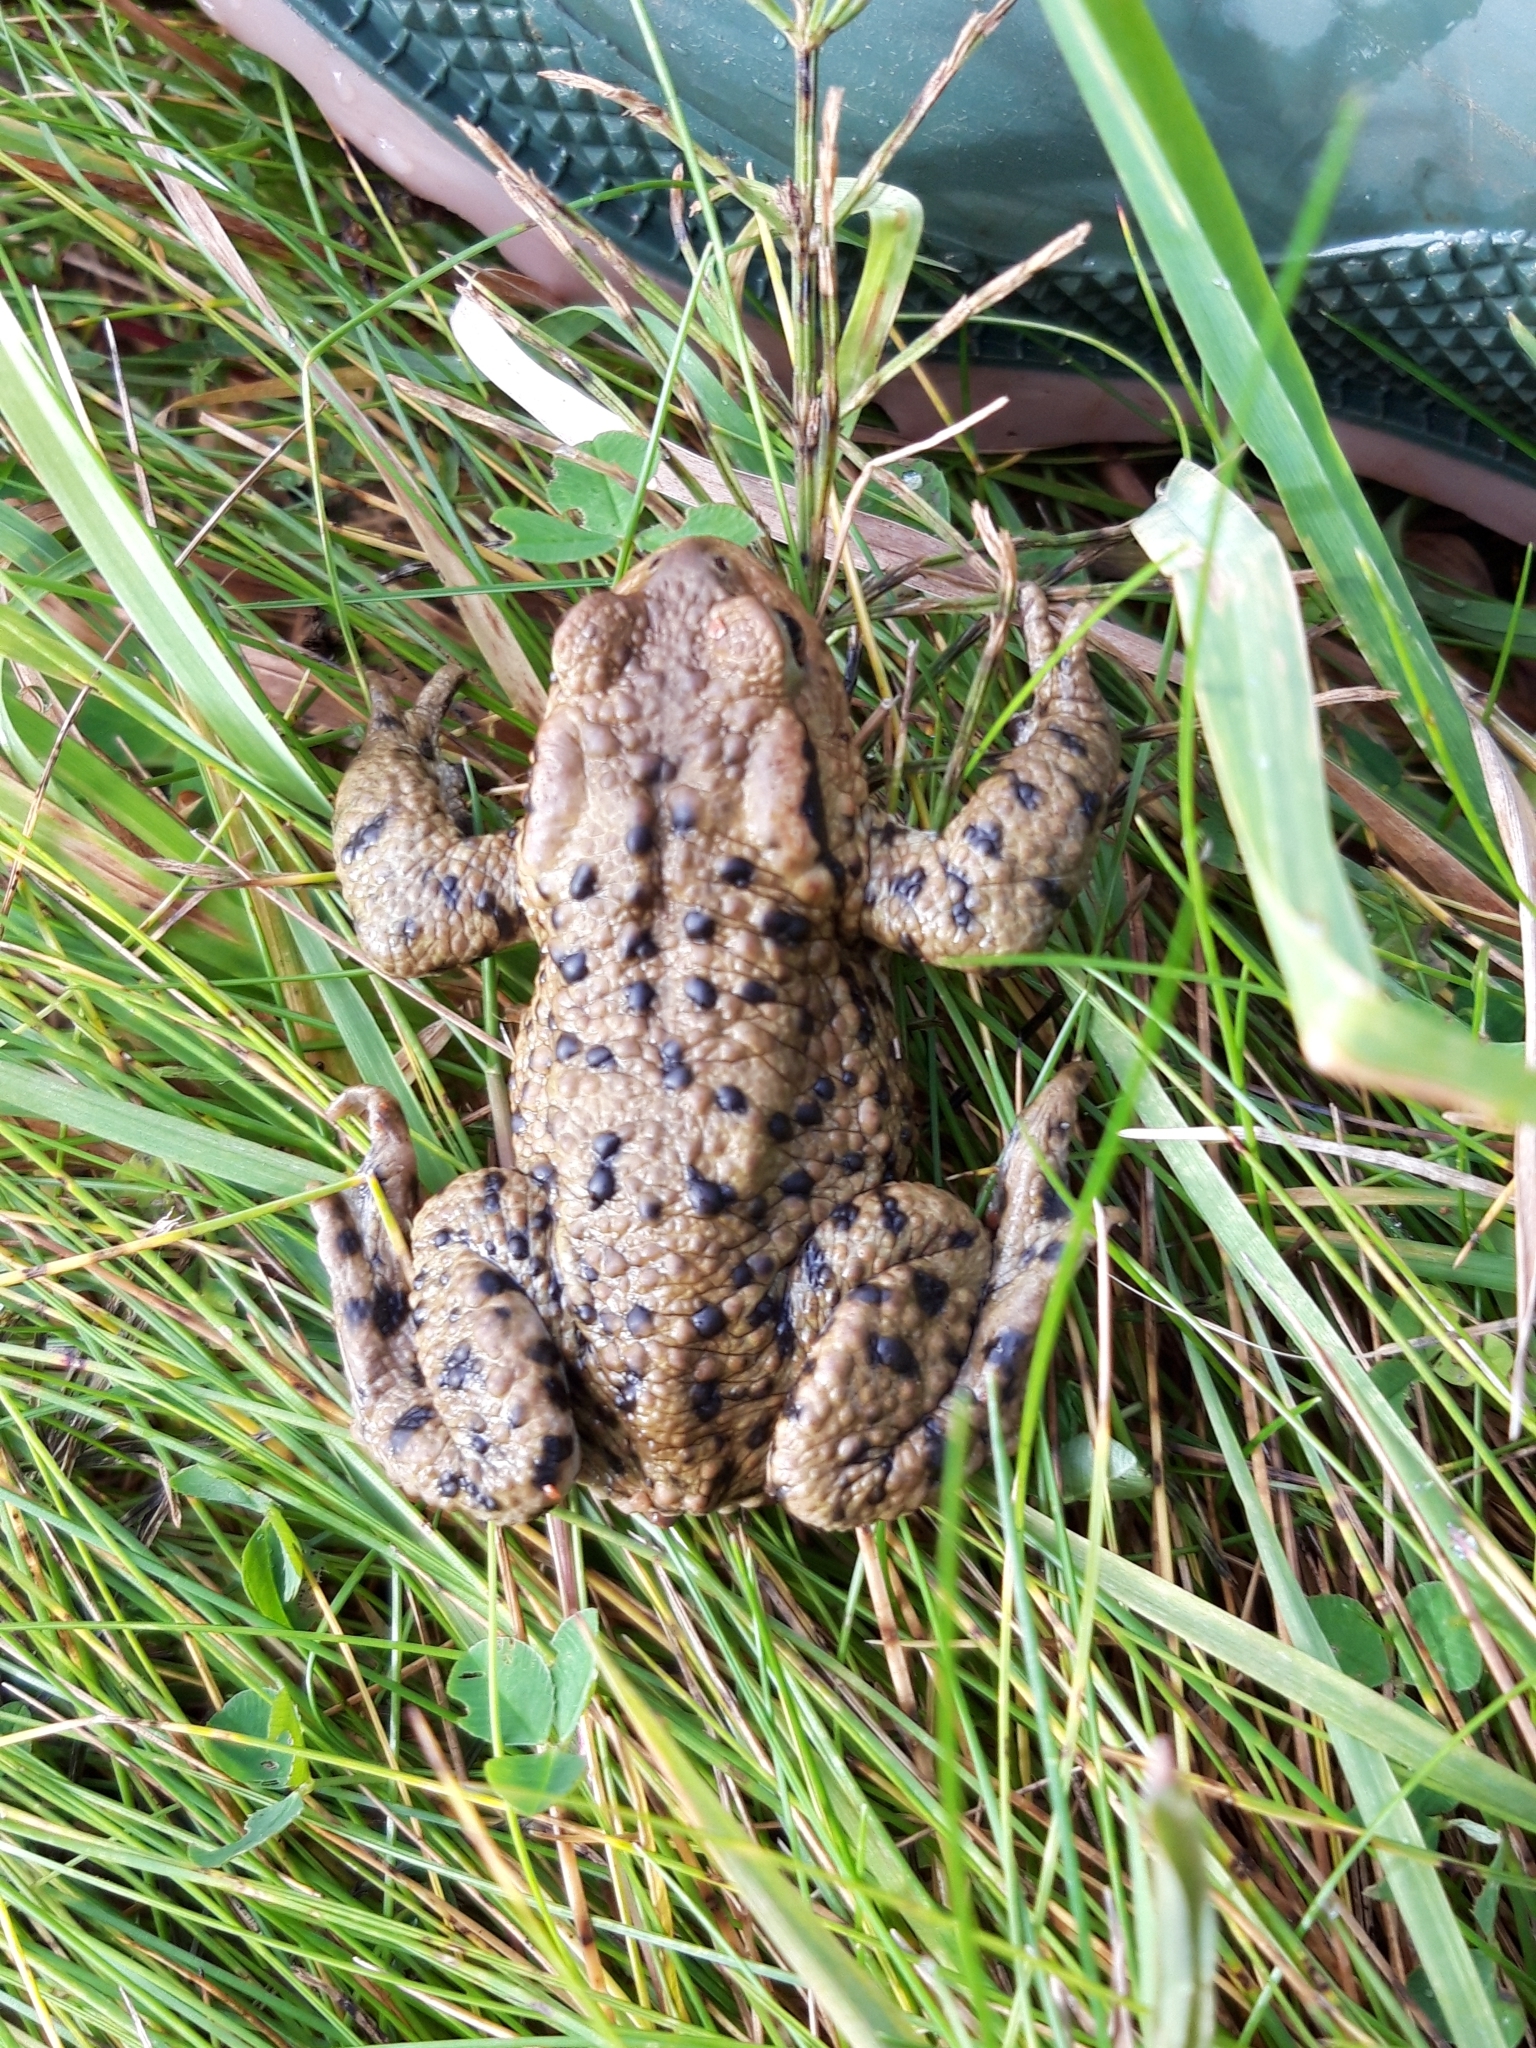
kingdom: Animalia
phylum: Chordata
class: Amphibia
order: Anura
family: Bufonidae
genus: Bufo
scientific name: Bufo bufo
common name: Common toad
